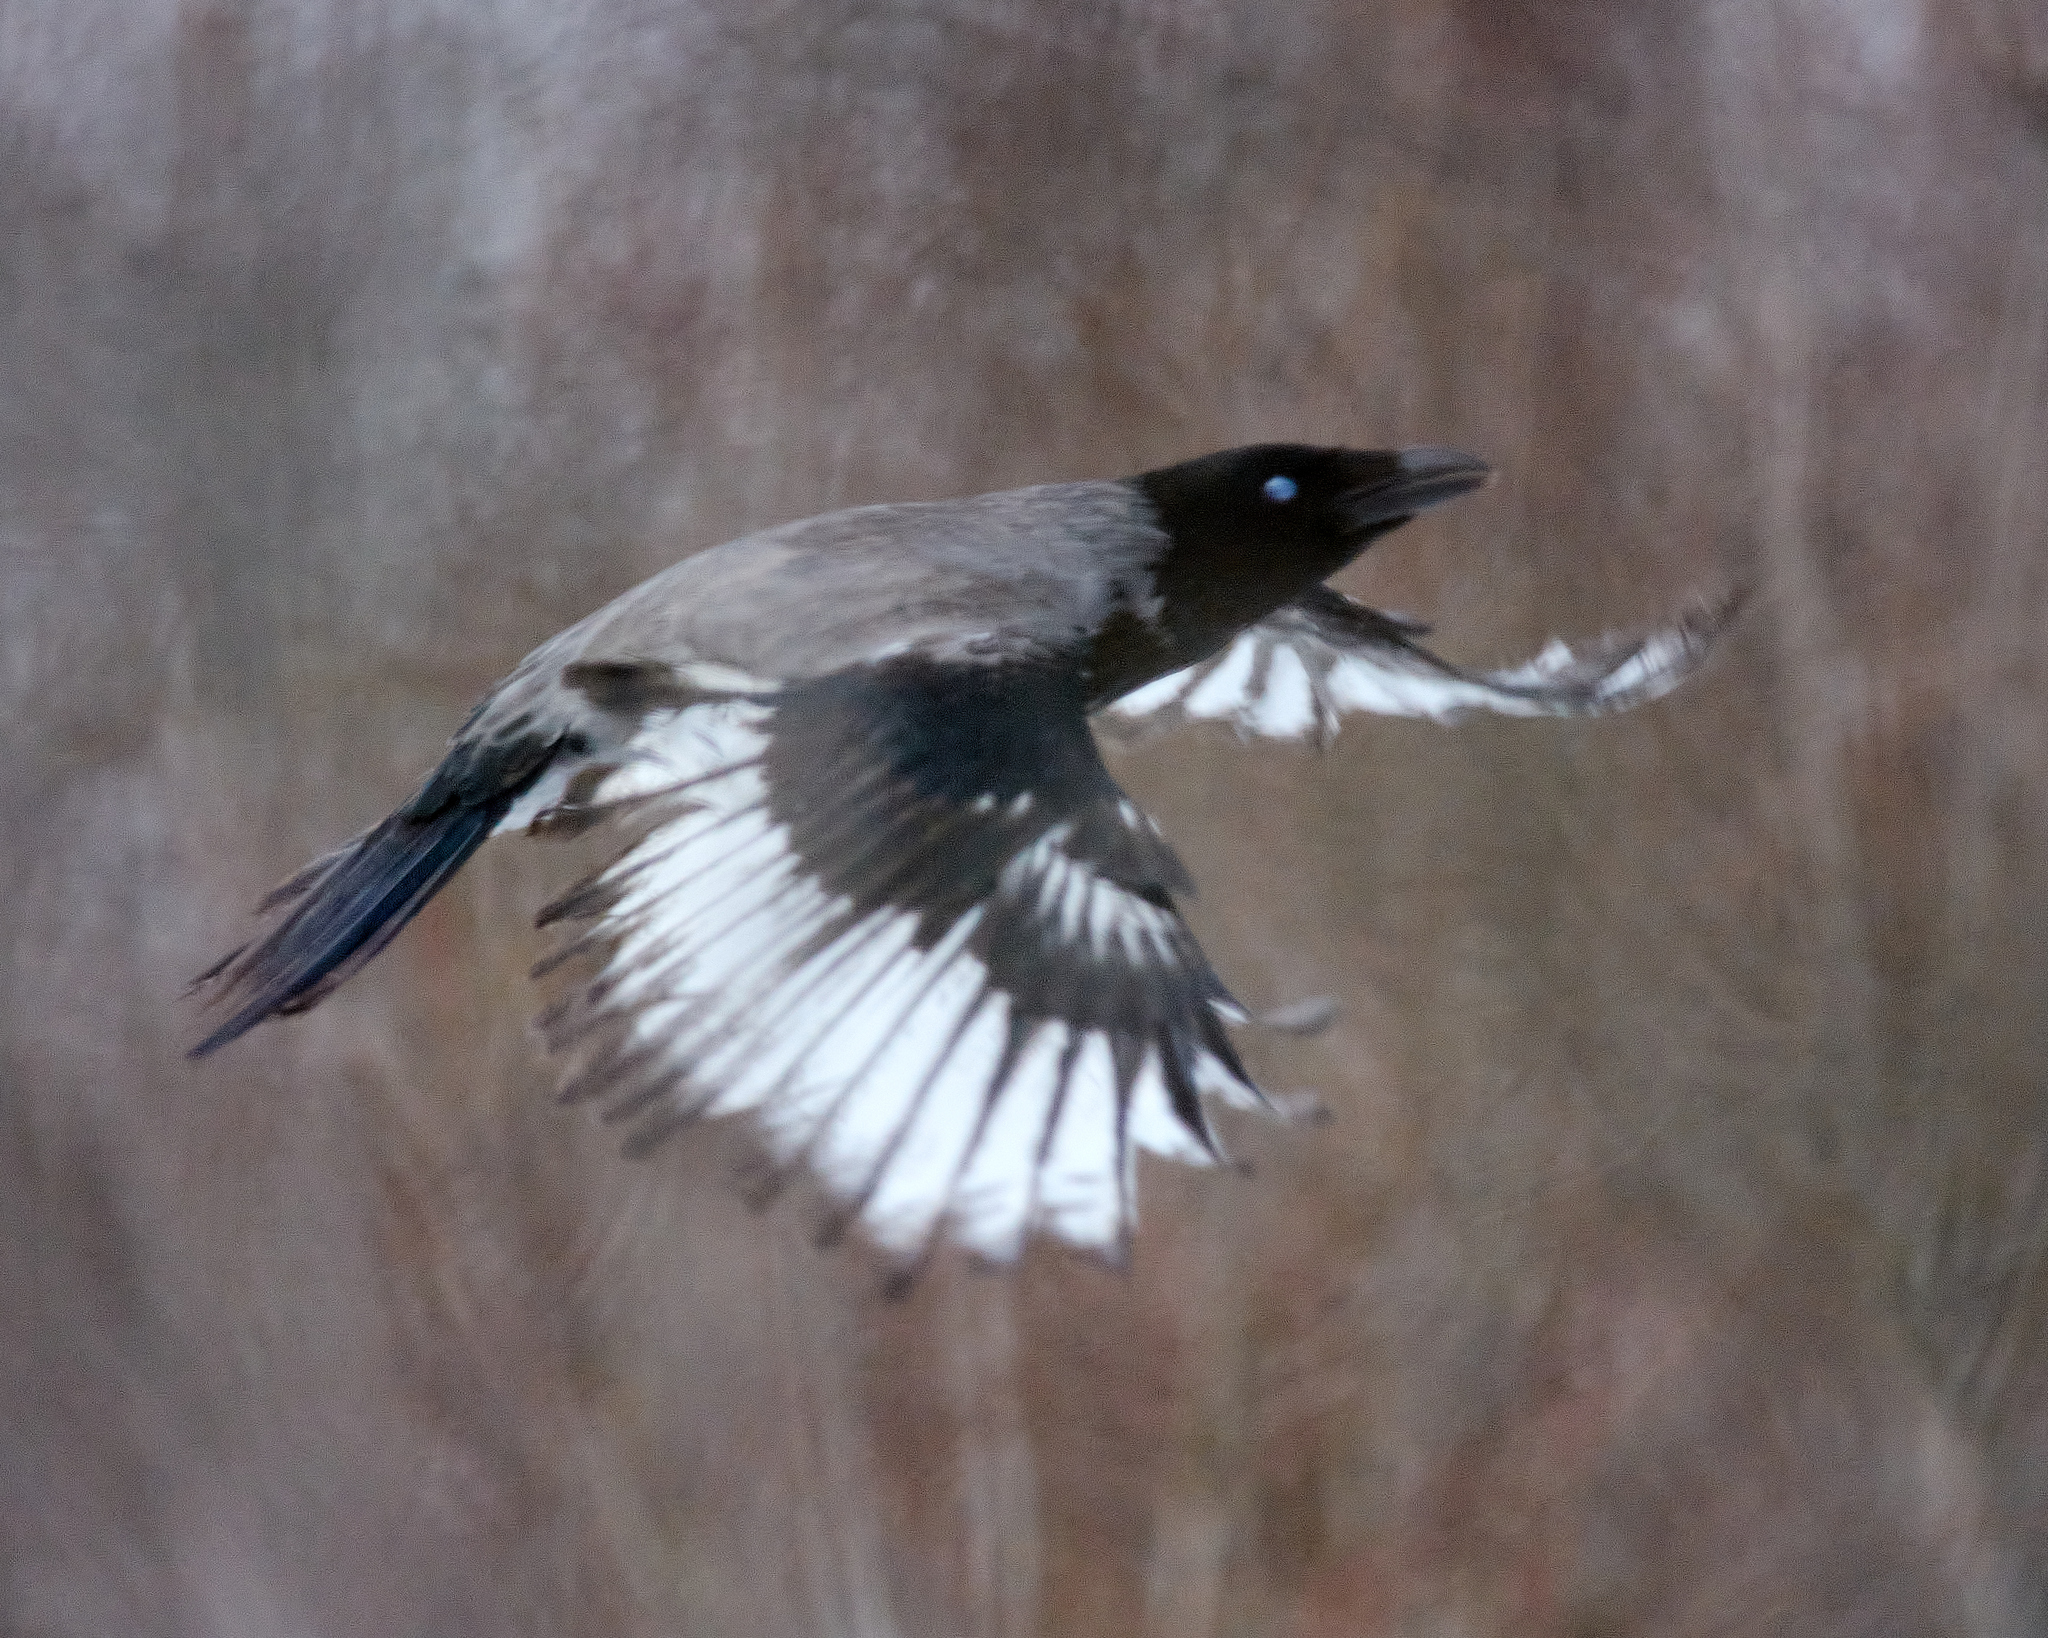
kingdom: Animalia
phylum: Chordata
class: Aves
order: Passeriformes
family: Corvidae
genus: Corvus
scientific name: Corvus cornix
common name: Hooded crow
